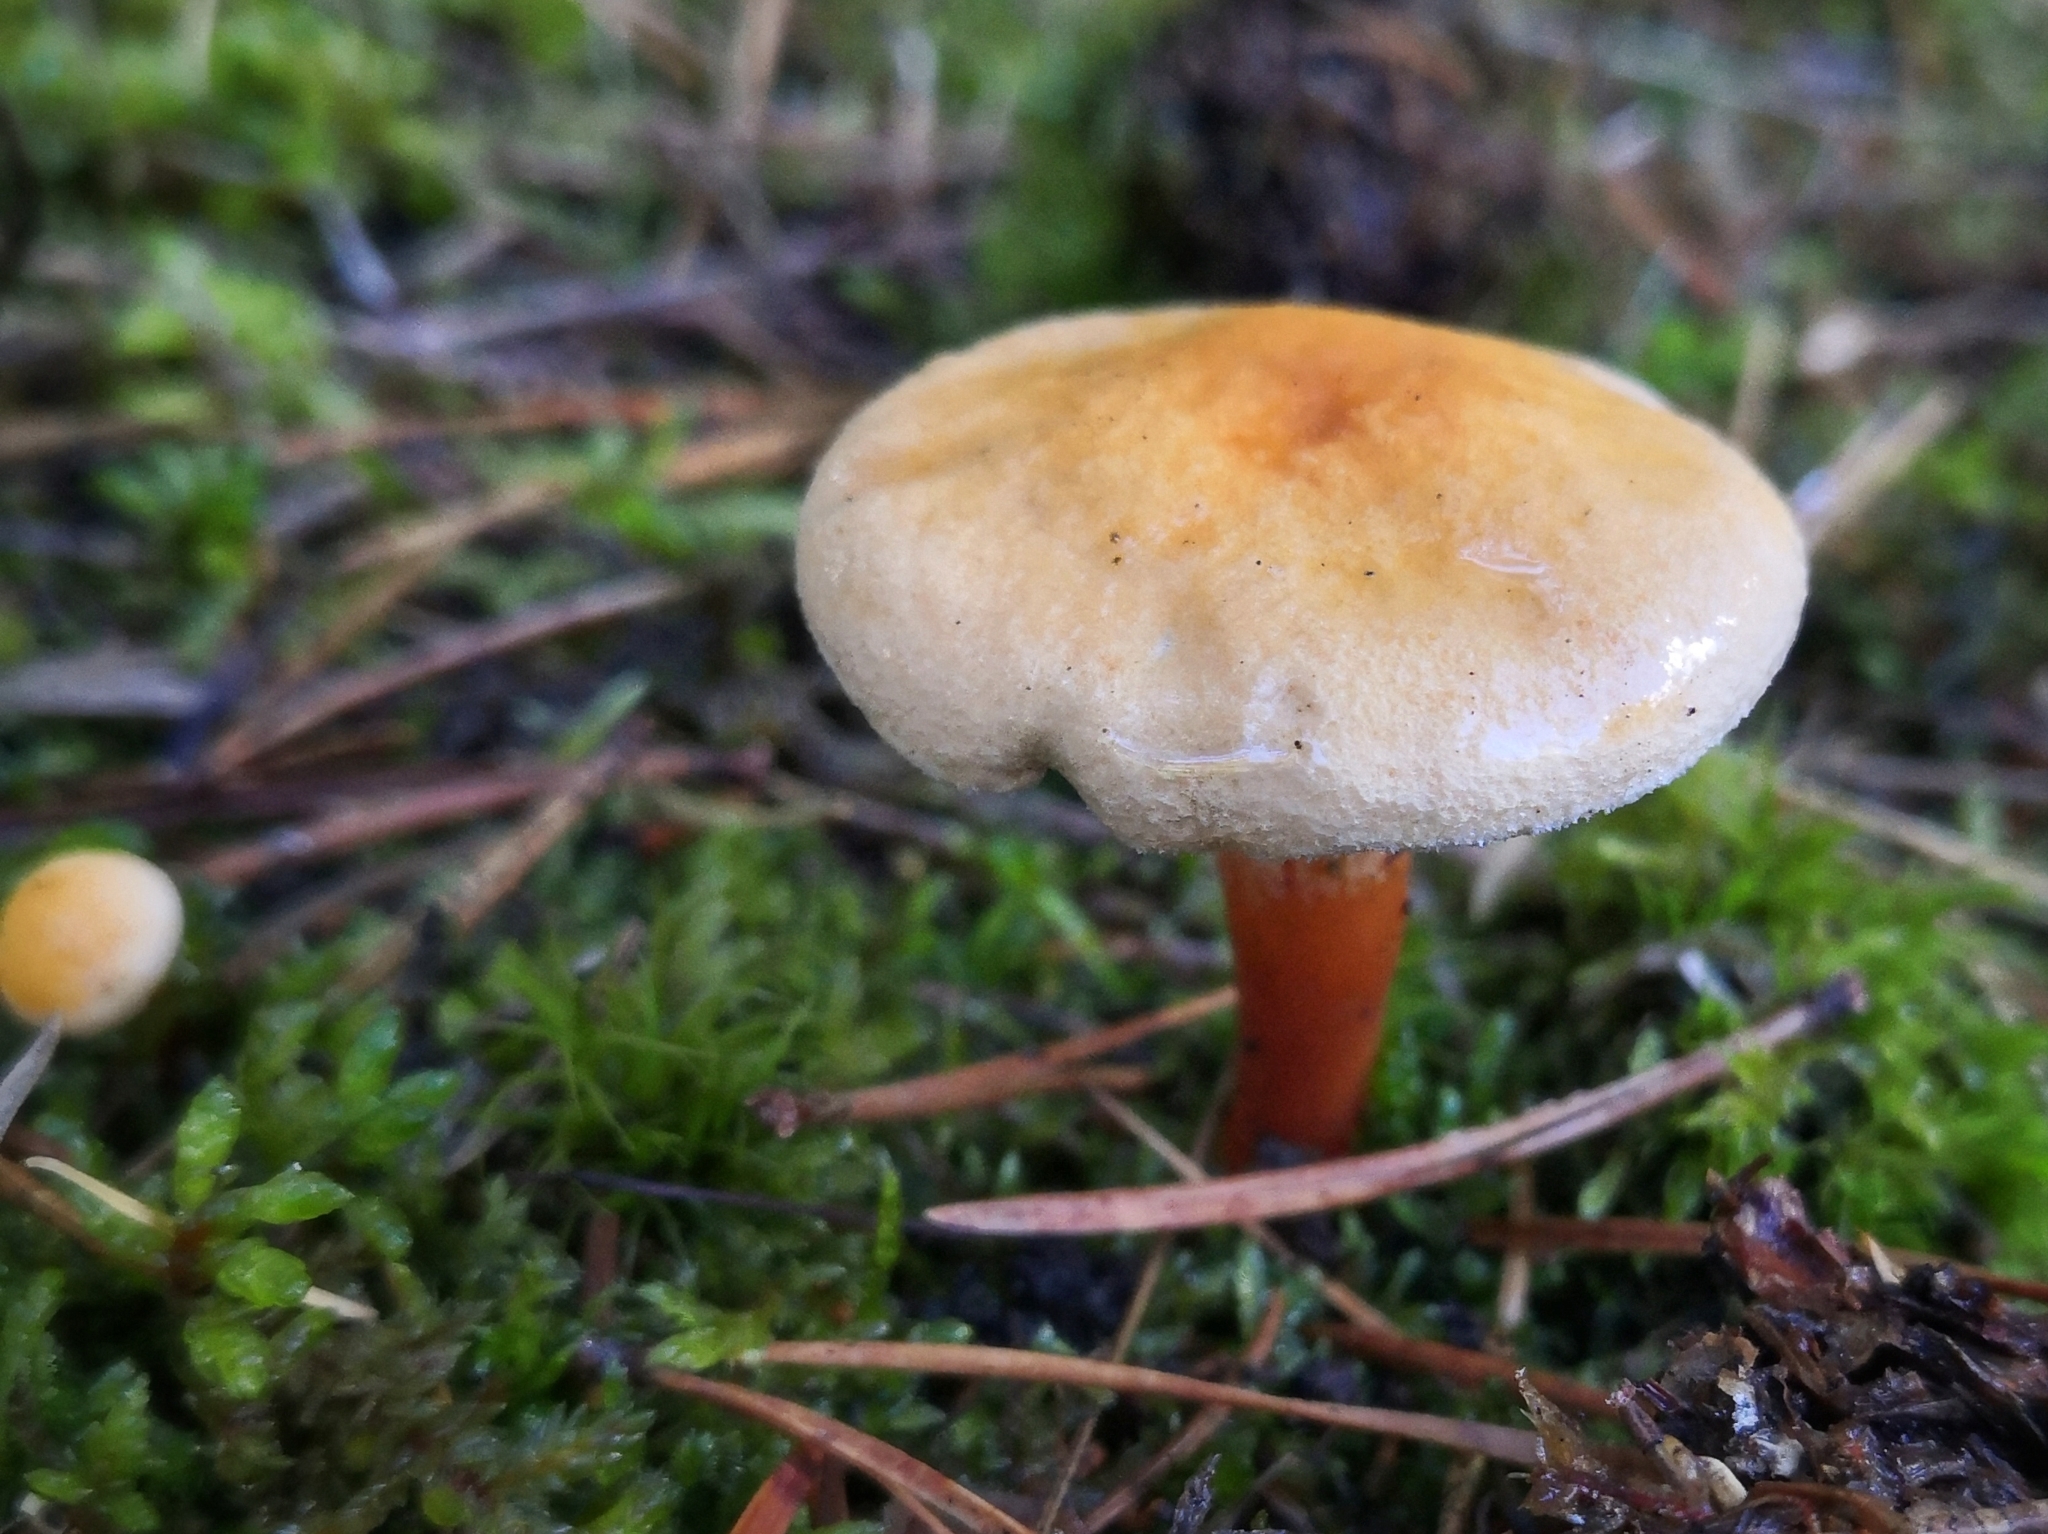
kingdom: Fungi
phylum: Basidiomycota
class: Agaricomycetes
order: Boletales
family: Hygrophoropsidaceae
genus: Hygrophoropsis
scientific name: Hygrophoropsis aurantiaca
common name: False chanterelle
